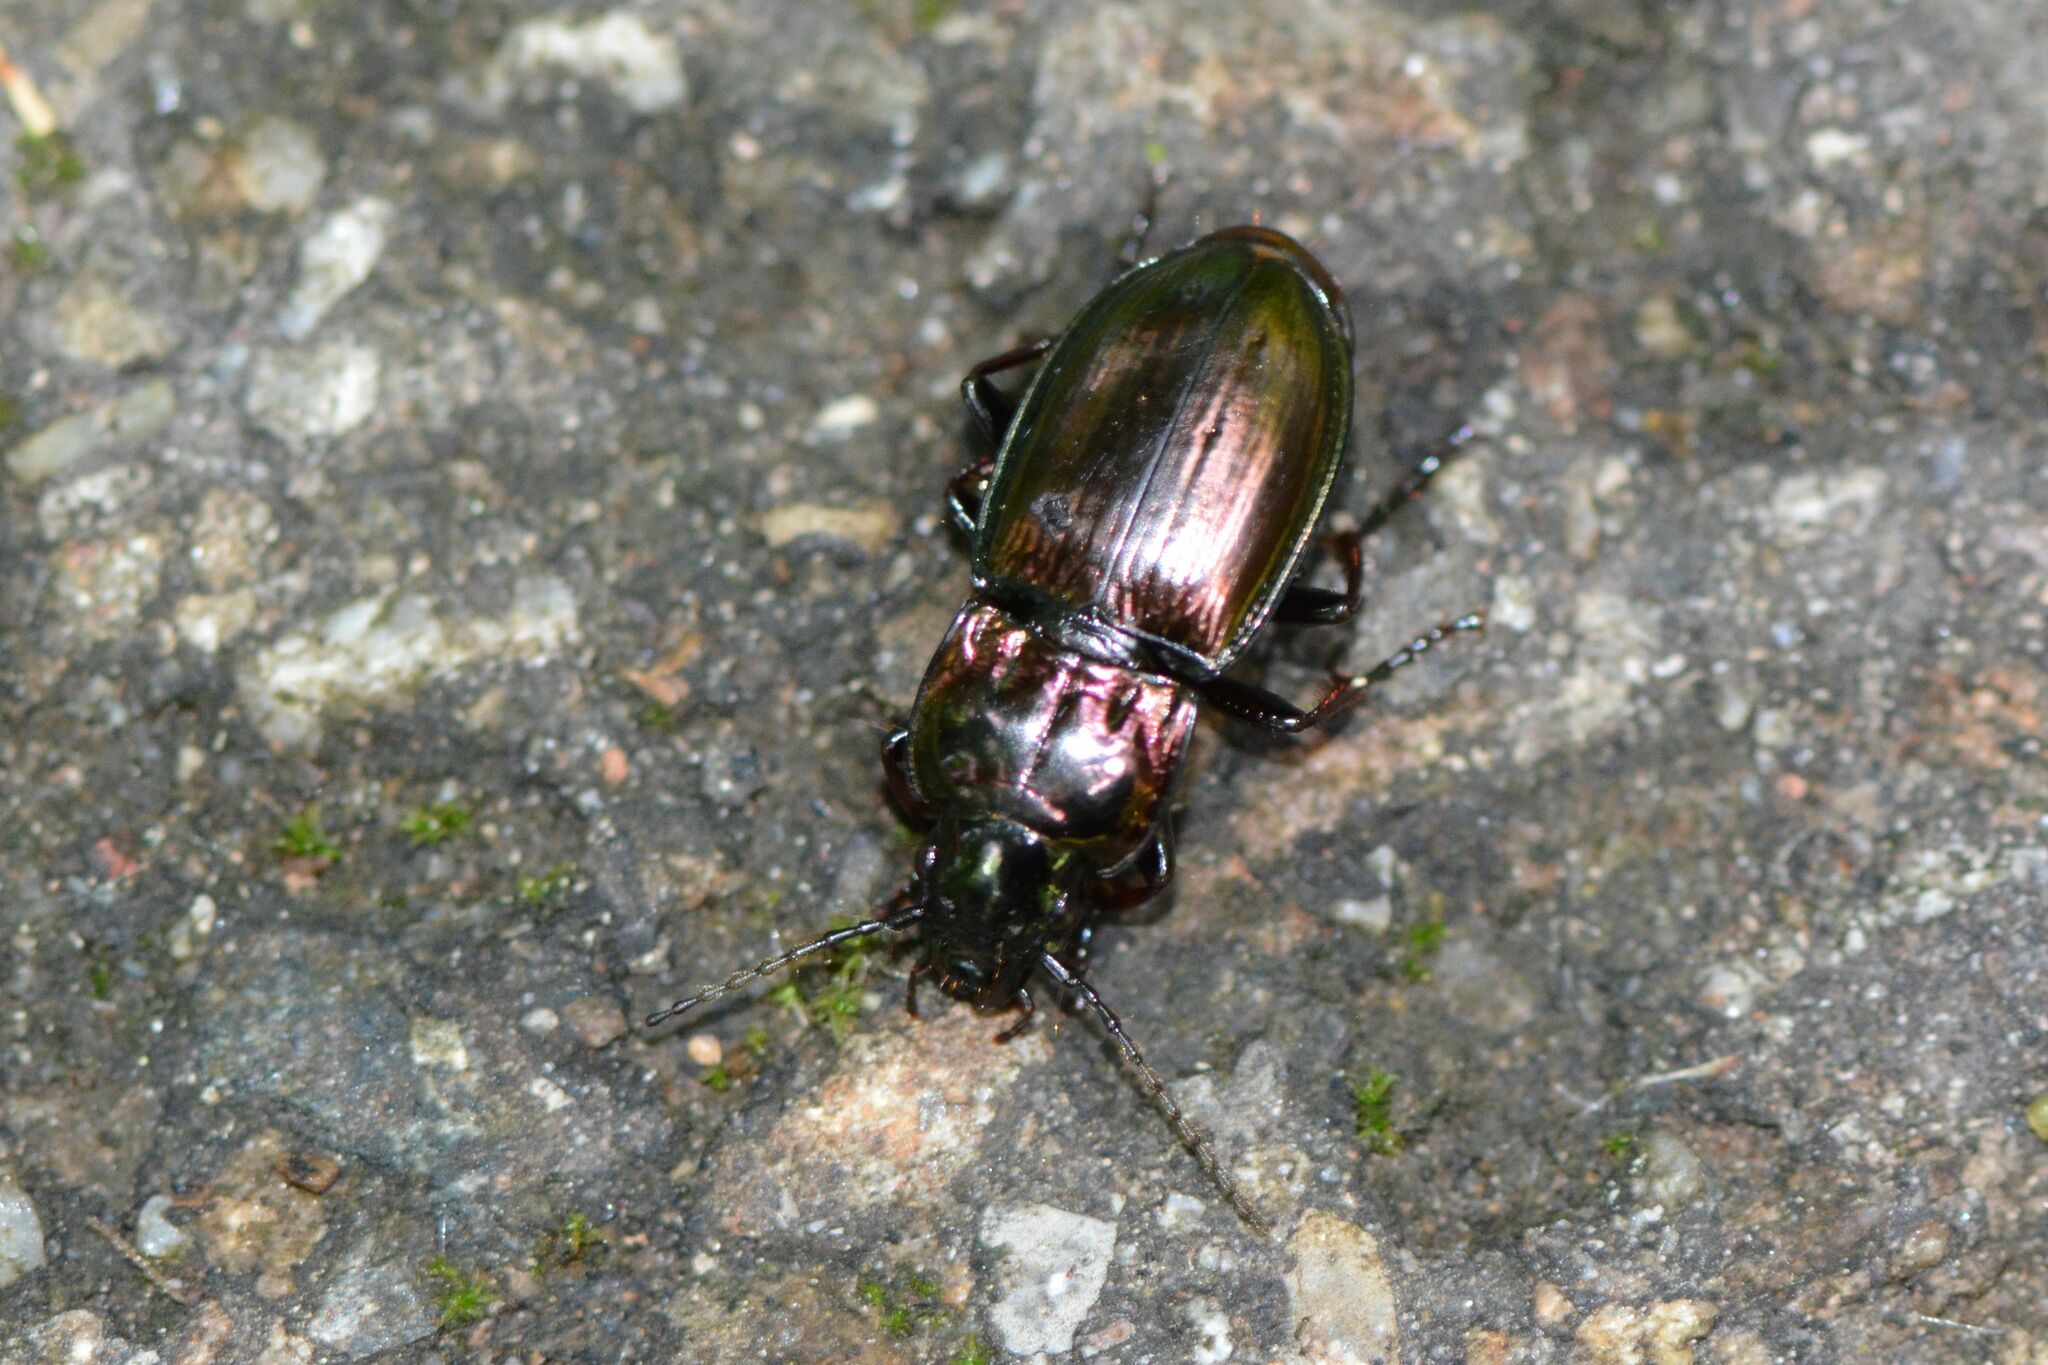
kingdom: Animalia
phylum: Arthropoda
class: Insecta
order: Coleoptera
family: Carabidae
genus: Pterostichus
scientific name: Pterostichus burmeisteri
